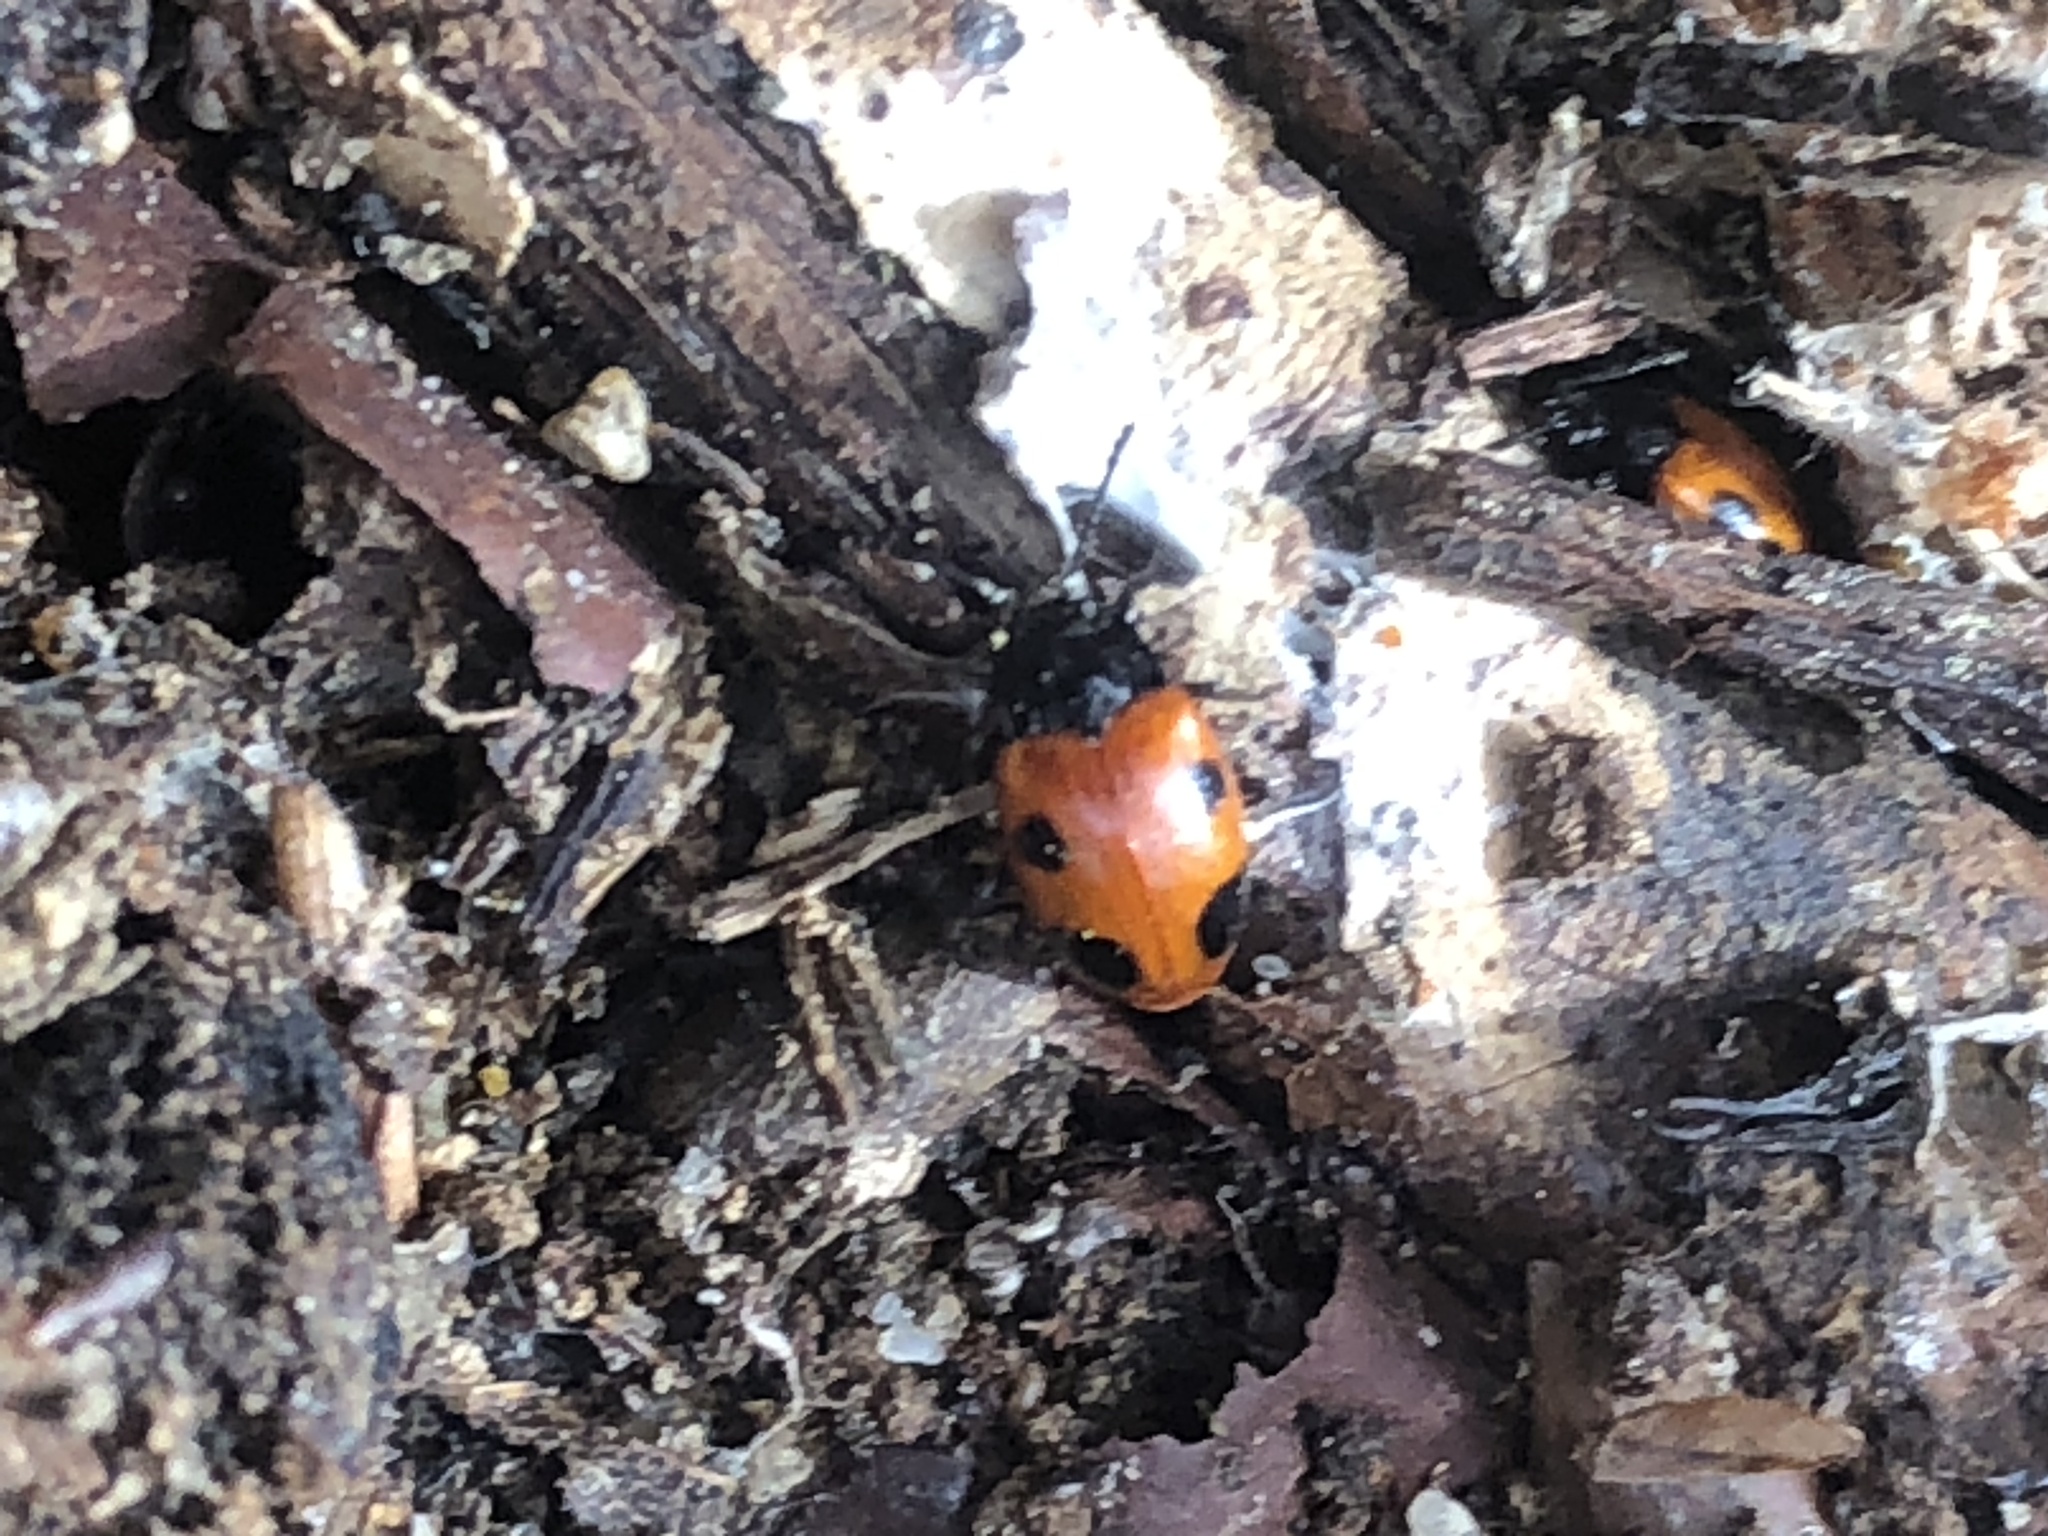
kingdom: Animalia
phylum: Arthropoda
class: Insecta
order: Coleoptera
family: Endomychidae
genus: Endomychus
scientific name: Endomychus biguttatus
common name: Handsome fungus beetle
